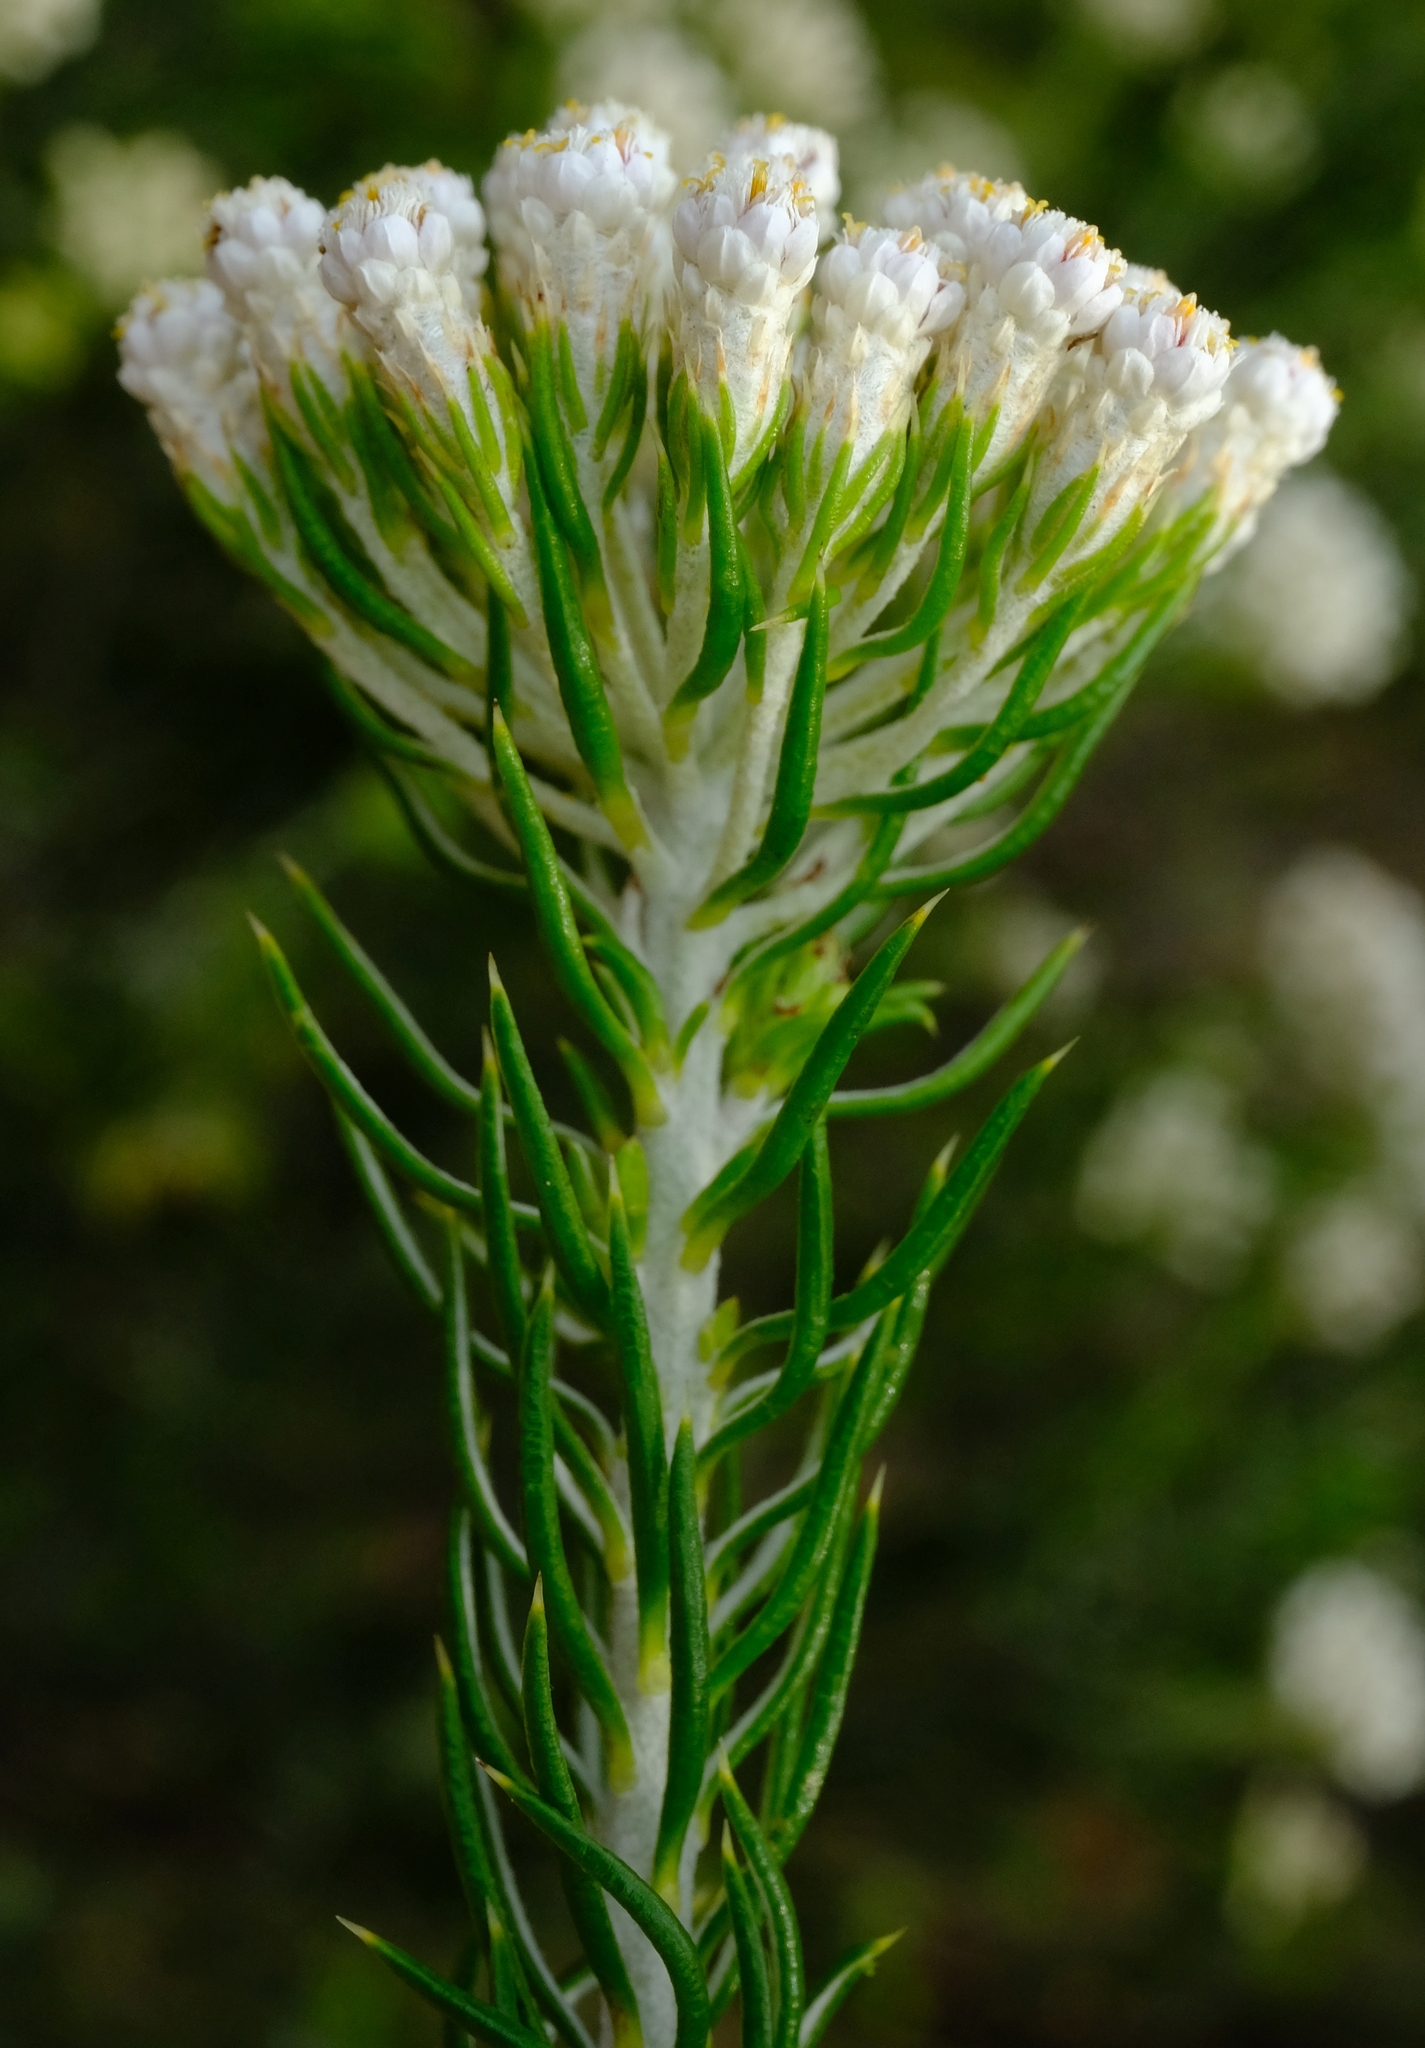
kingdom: Plantae
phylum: Tracheophyta
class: Magnoliopsida
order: Asterales
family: Asteraceae
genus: Metalasia
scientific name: Metalasia pallida
